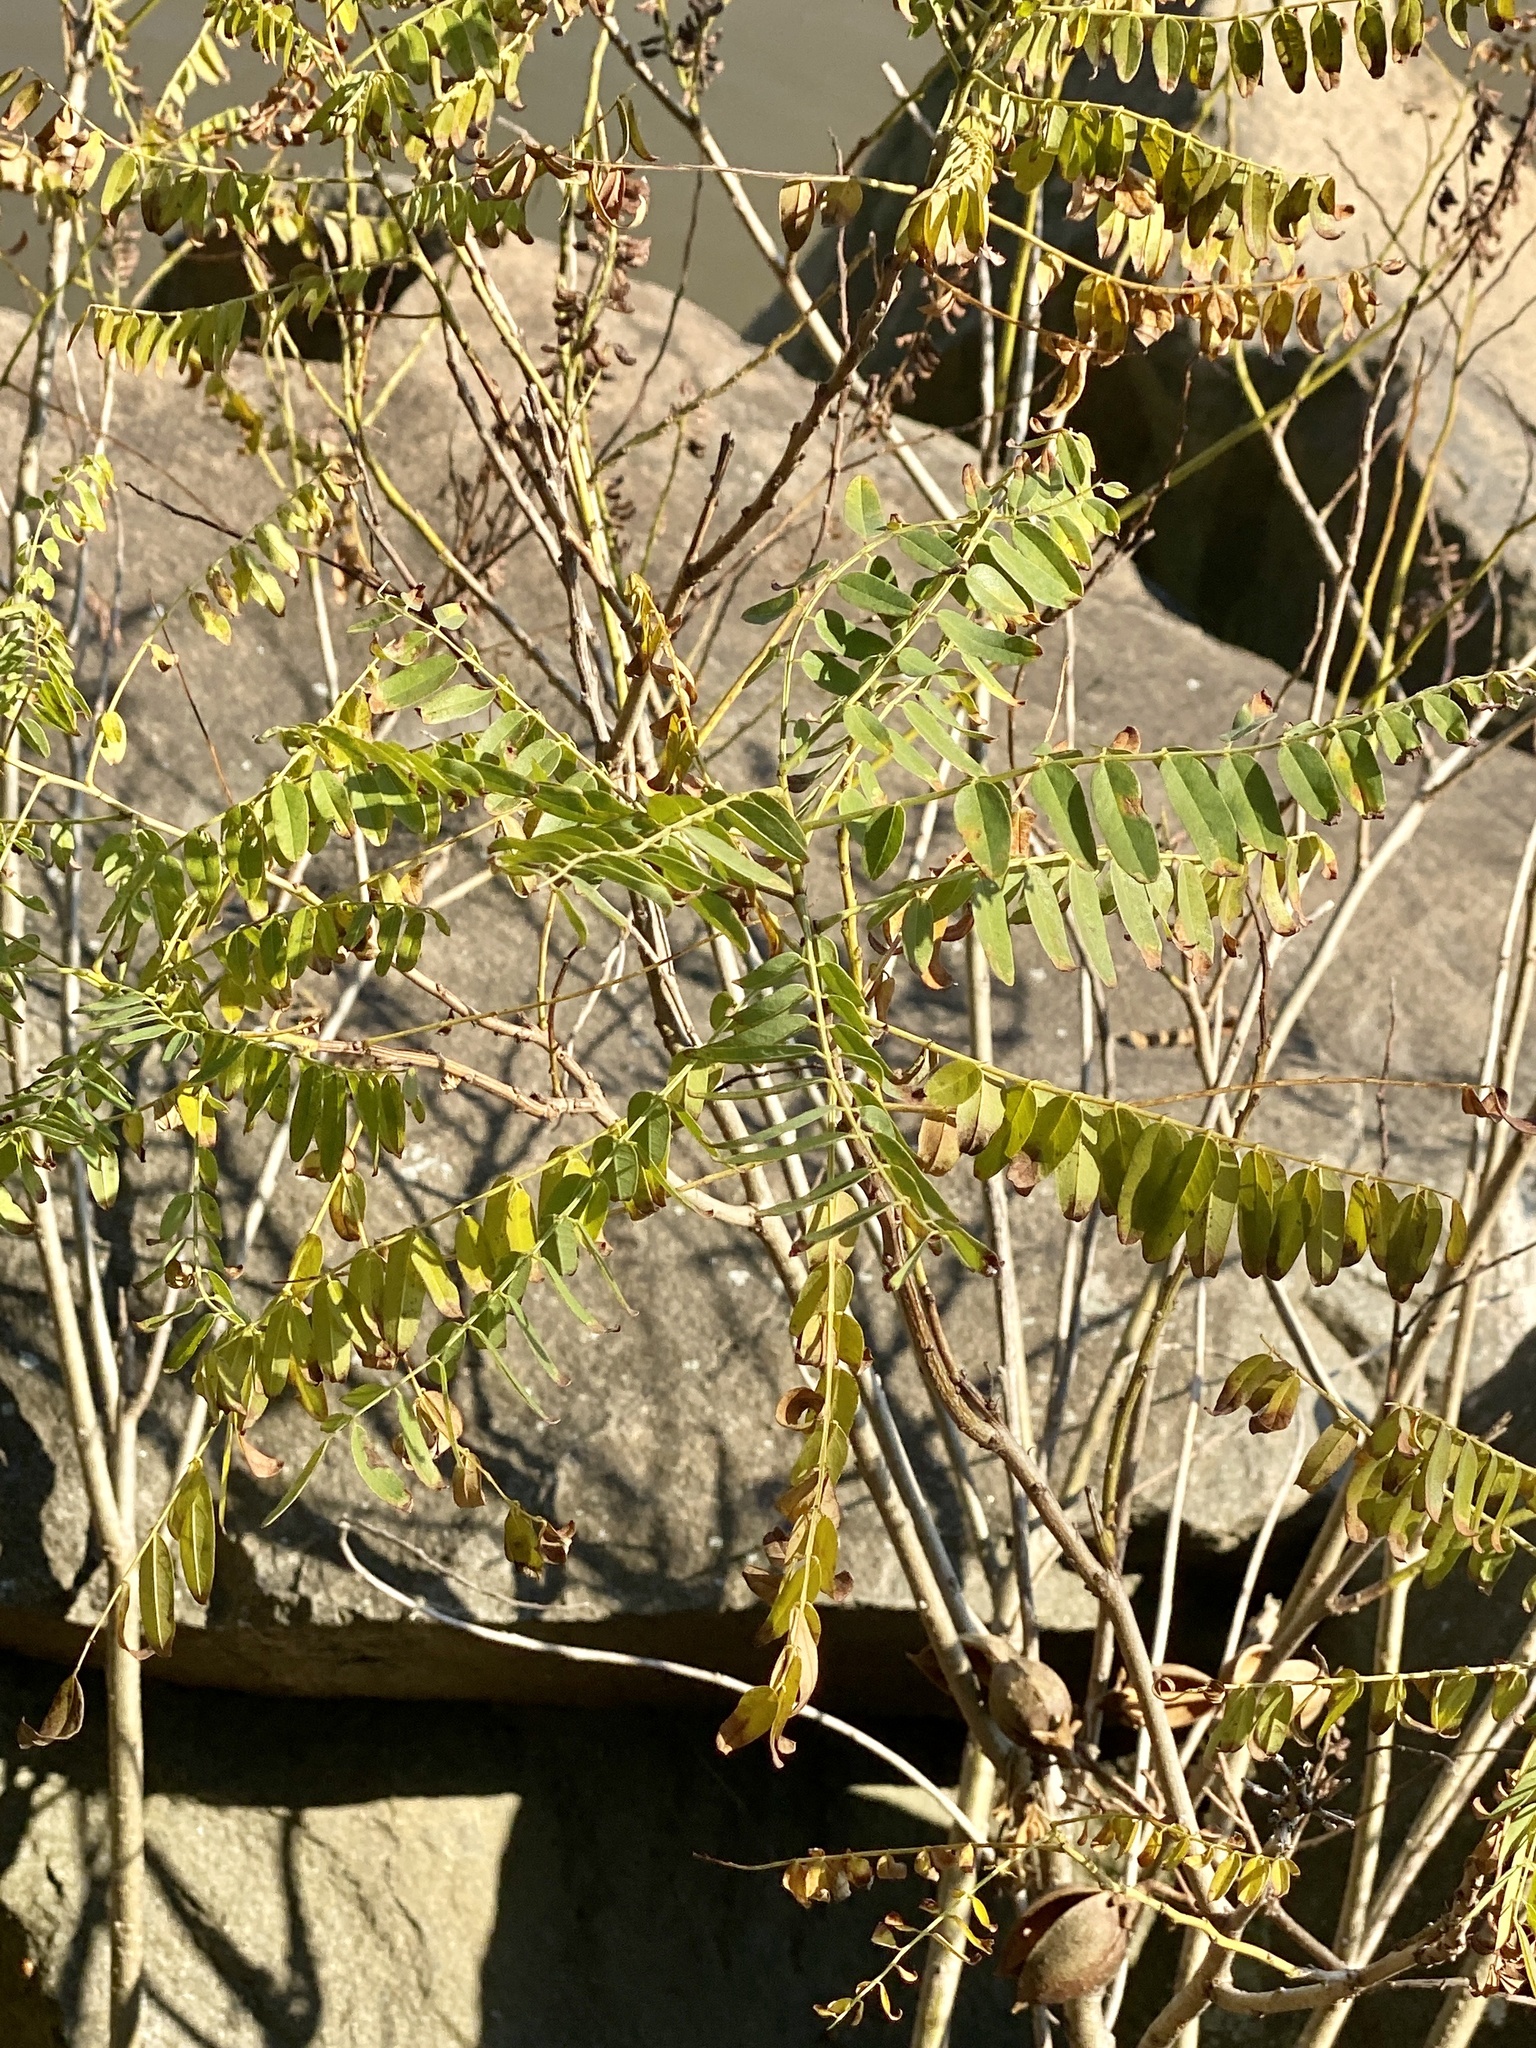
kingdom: Plantae
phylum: Tracheophyta
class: Magnoliopsida
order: Fabales
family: Fabaceae
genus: Amorpha
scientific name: Amorpha fruticosa
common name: False indigo
